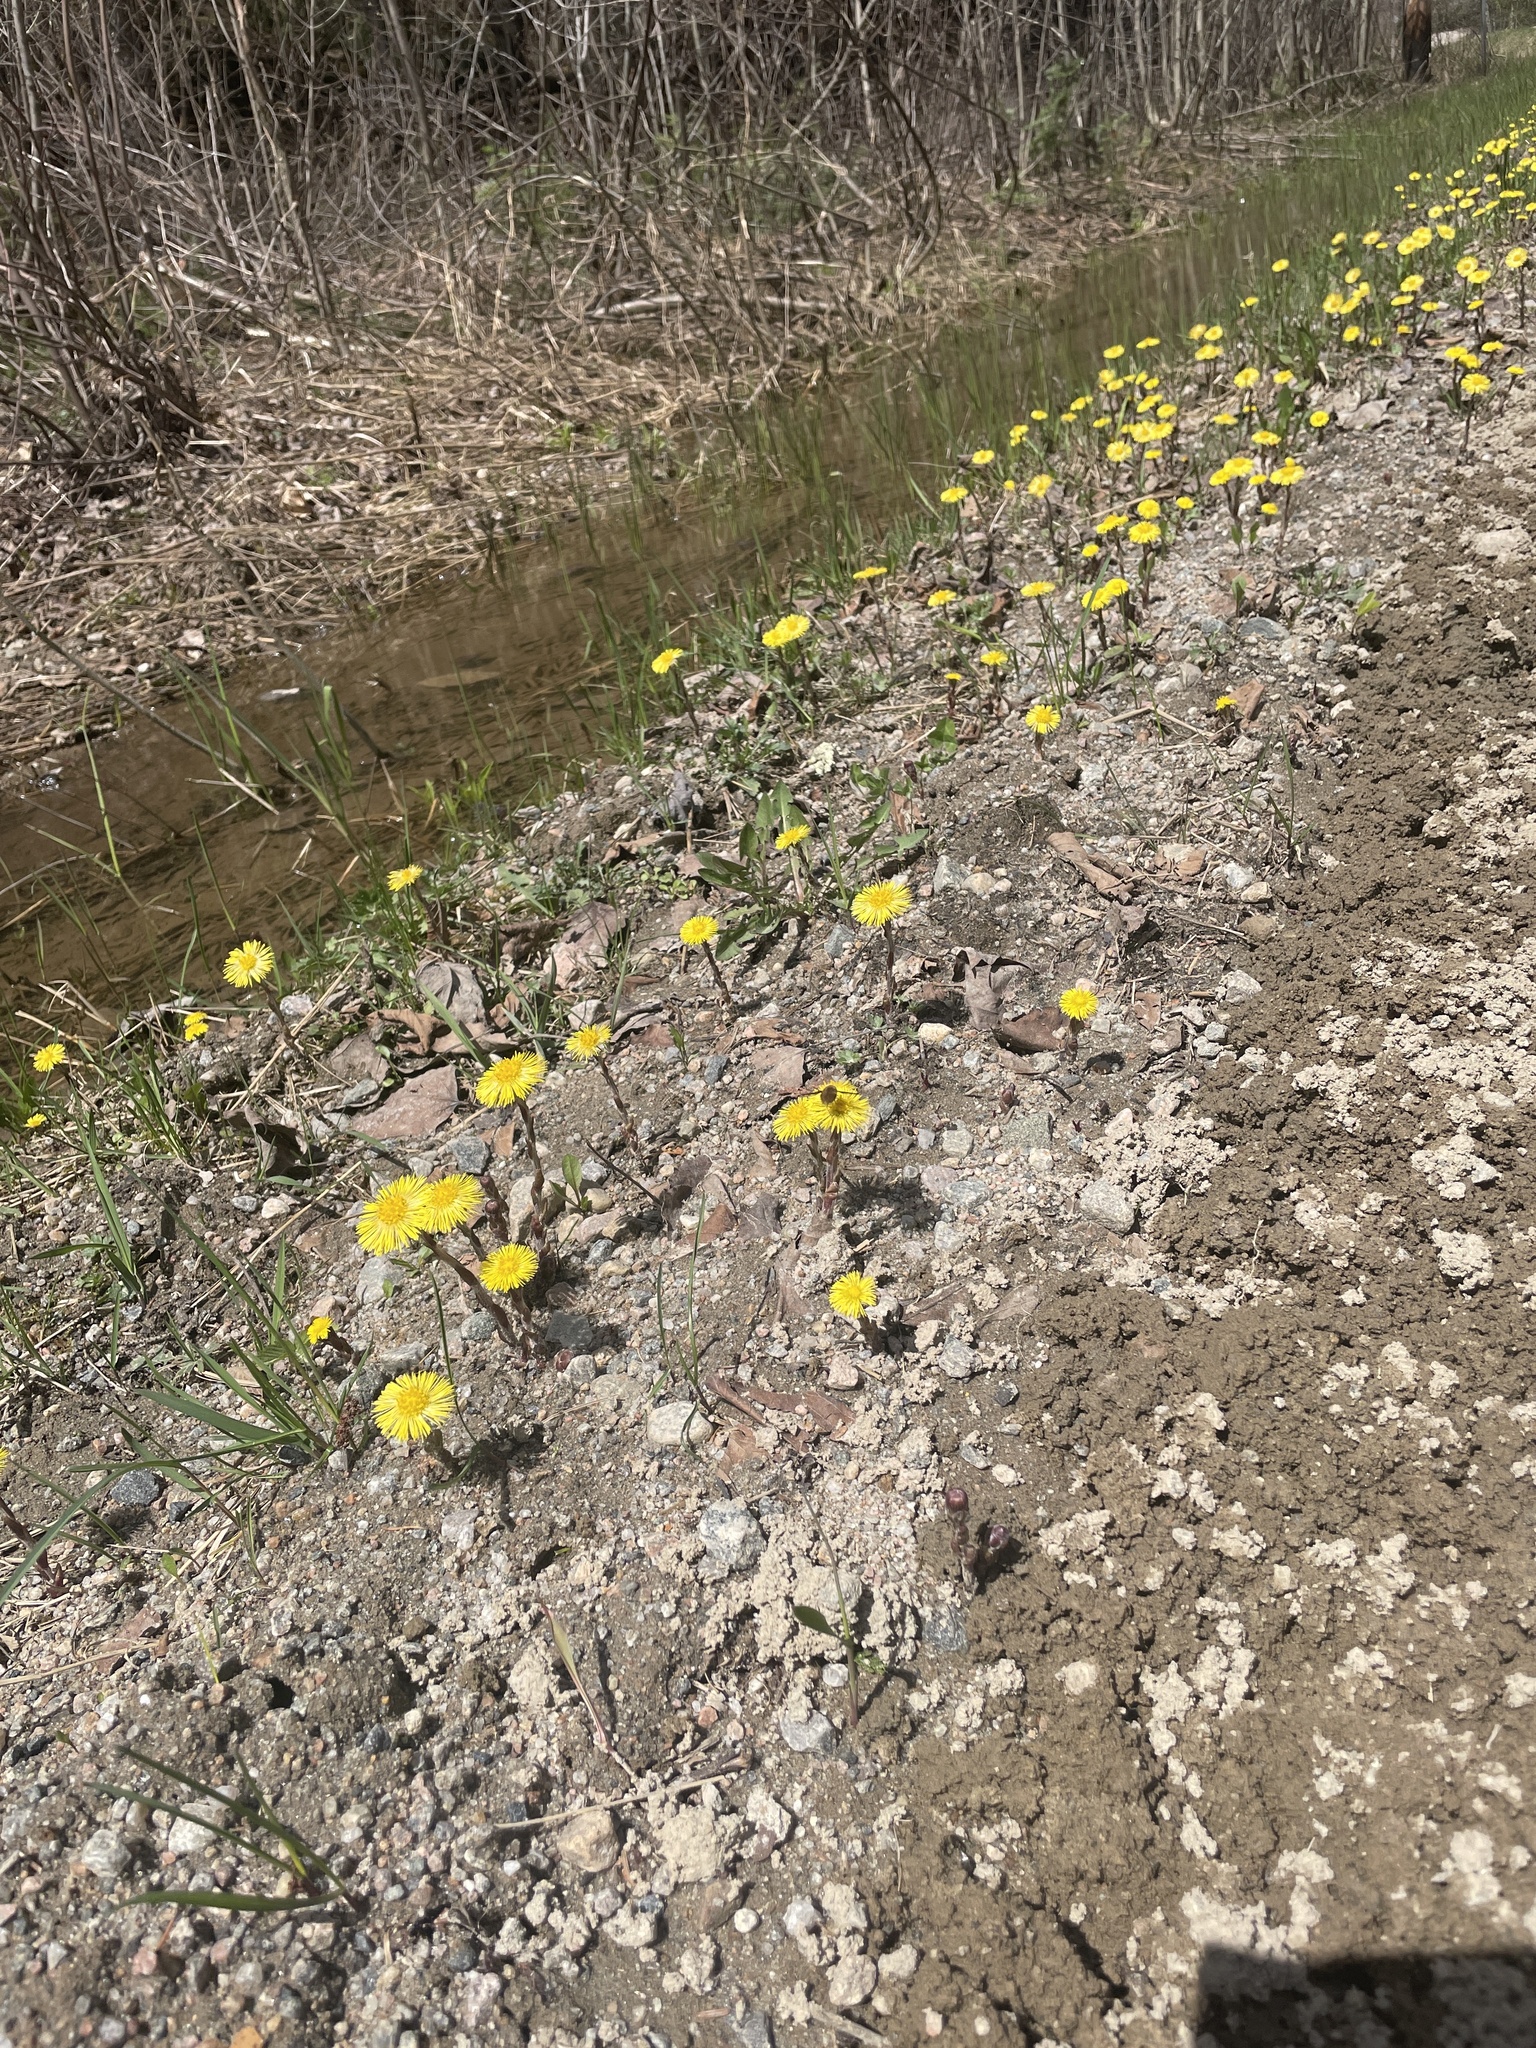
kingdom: Plantae
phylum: Tracheophyta
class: Magnoliopsida
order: Asterales
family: Asteraceae
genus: Tussilago
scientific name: Tussilago farfara
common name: Coltsfoot
